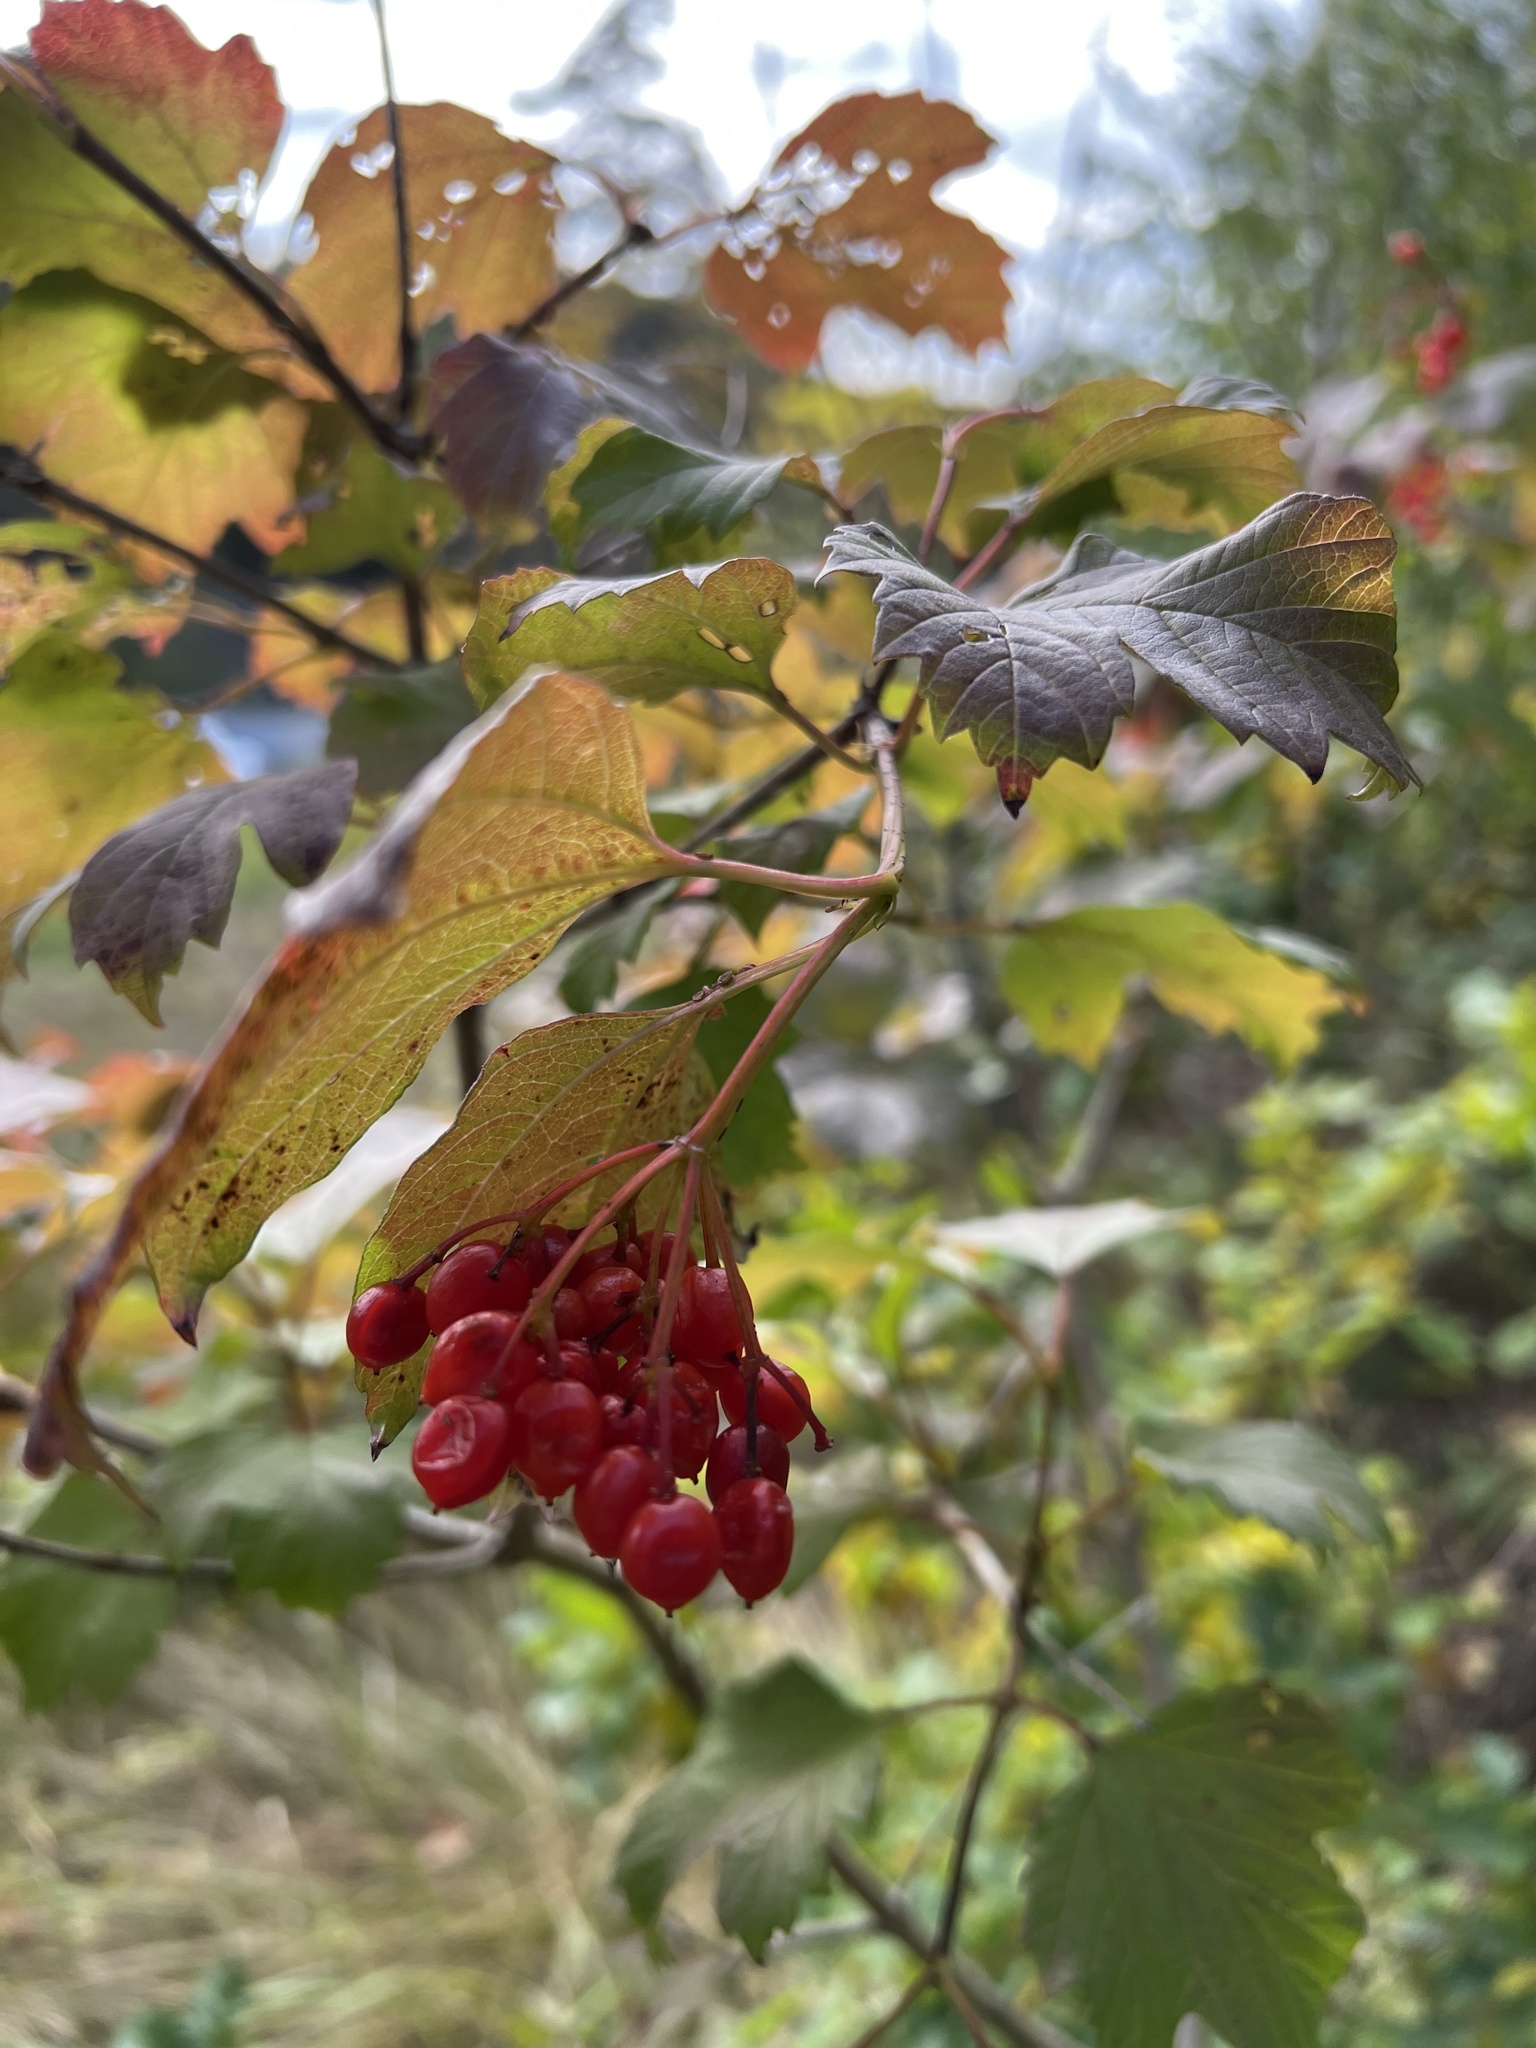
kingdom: Plantae
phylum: Tracheophyta
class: Magnoliopsida
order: Dipsacales
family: Viburnaceae
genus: Viburnum
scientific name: Viburnum opulus
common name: Guelder-rose
